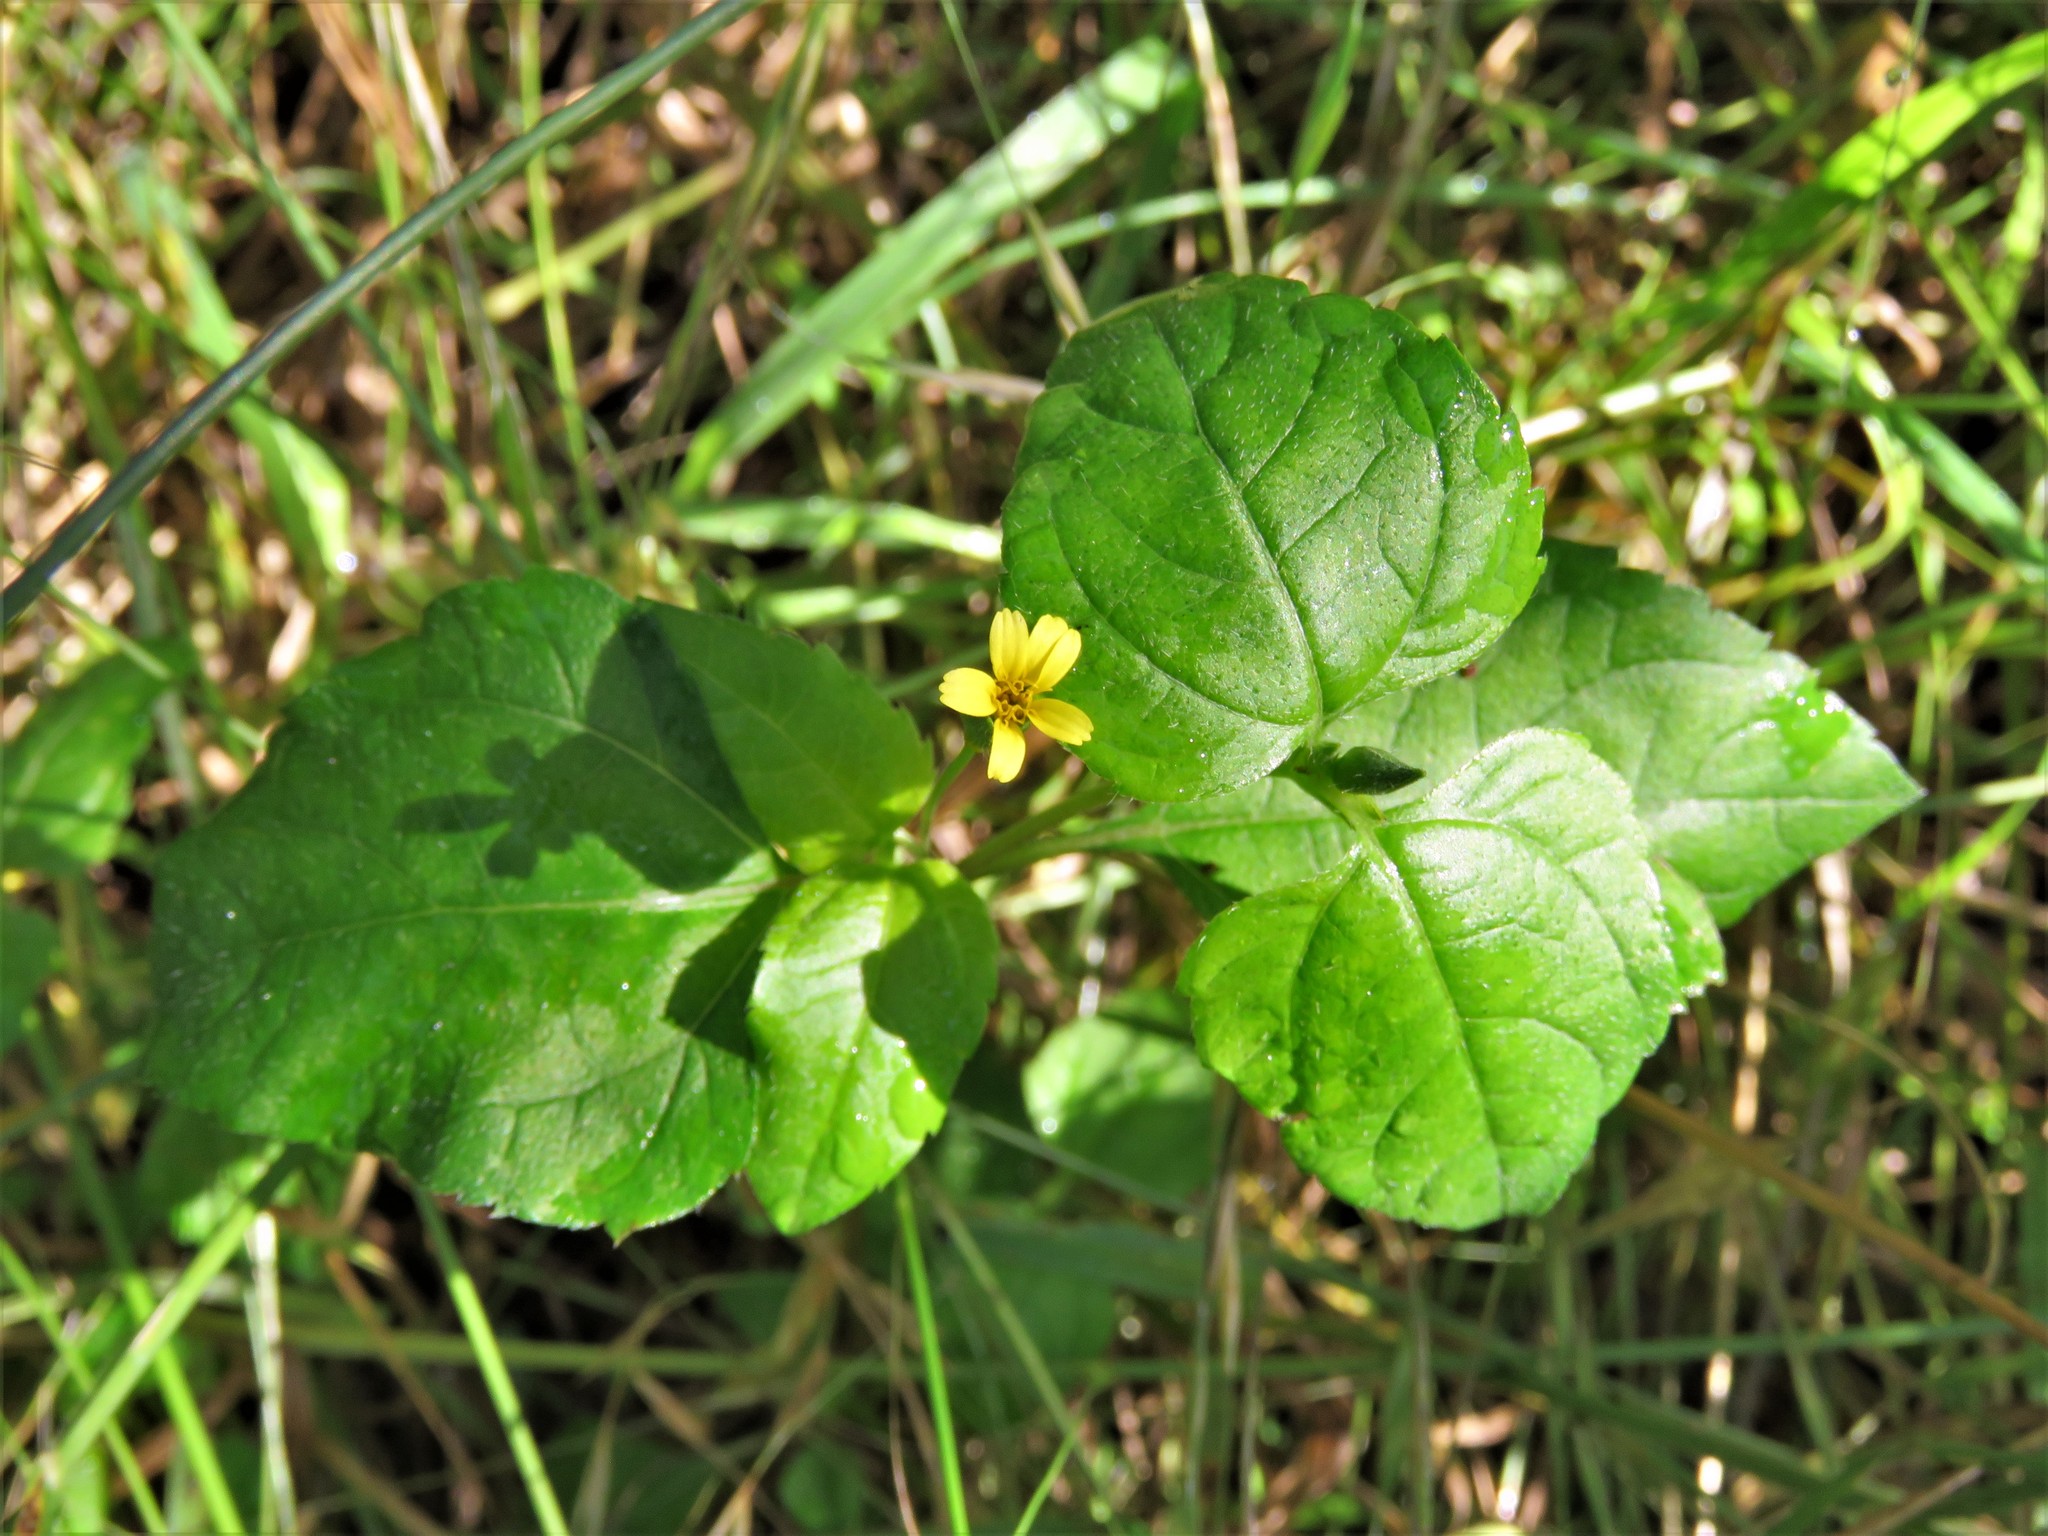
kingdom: Plantae
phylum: Tracheophyta
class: Magnoliopsida
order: Asterales
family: Asteraceae
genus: Calyptocarpus
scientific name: Calyptocarpus vialis
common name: Straggler daisy
